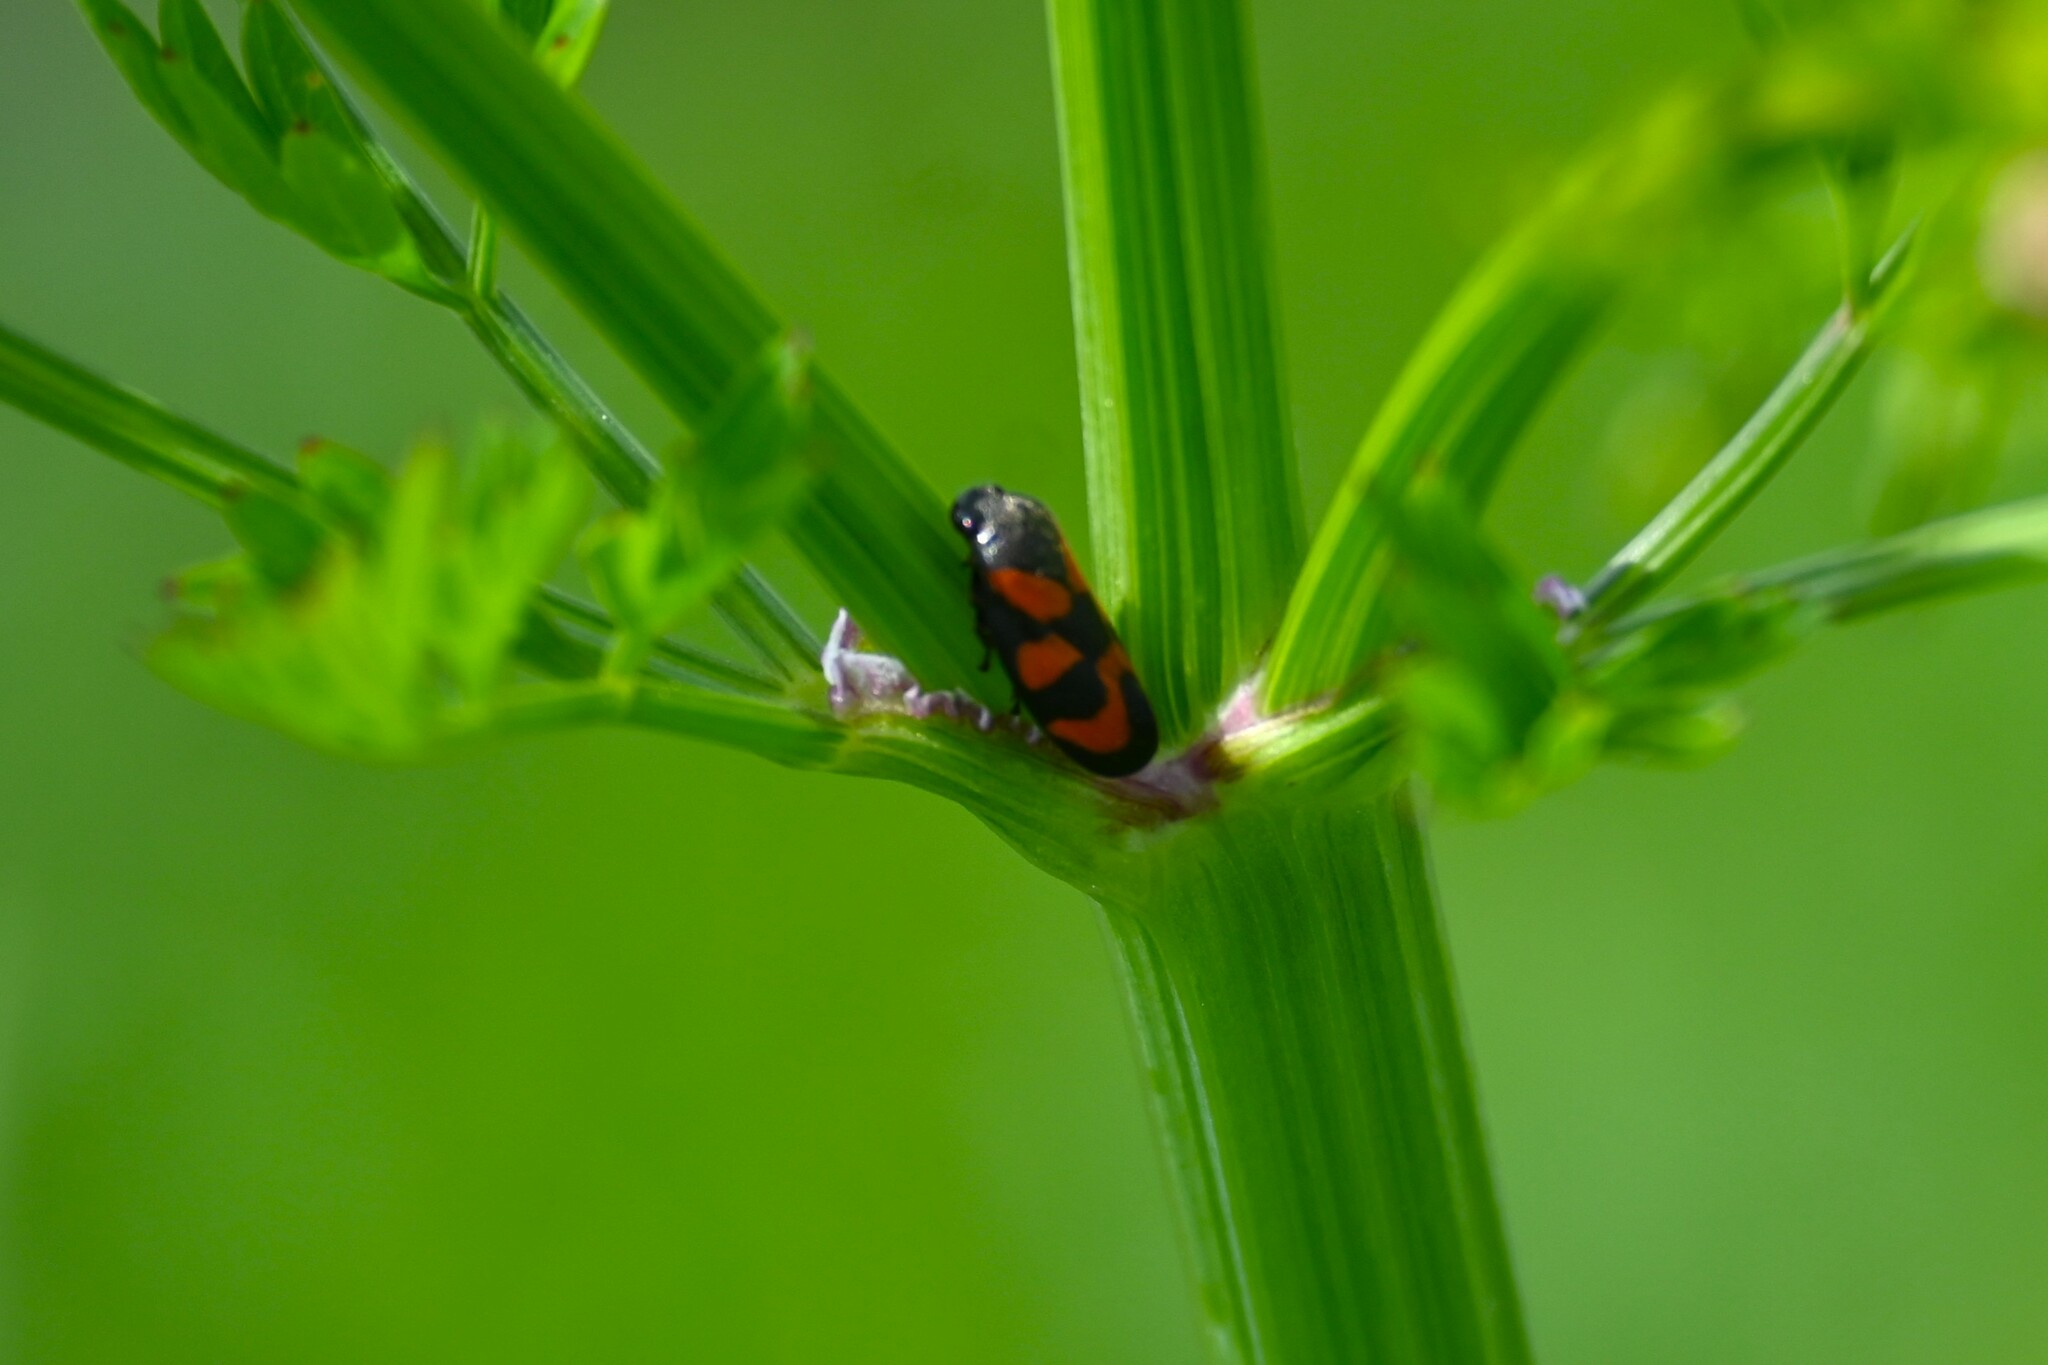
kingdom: Animalia
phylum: Arthropoda
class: Insecta
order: Hemiptera
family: Cercopidae
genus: Cercopis
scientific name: Cercopis vulnerata
